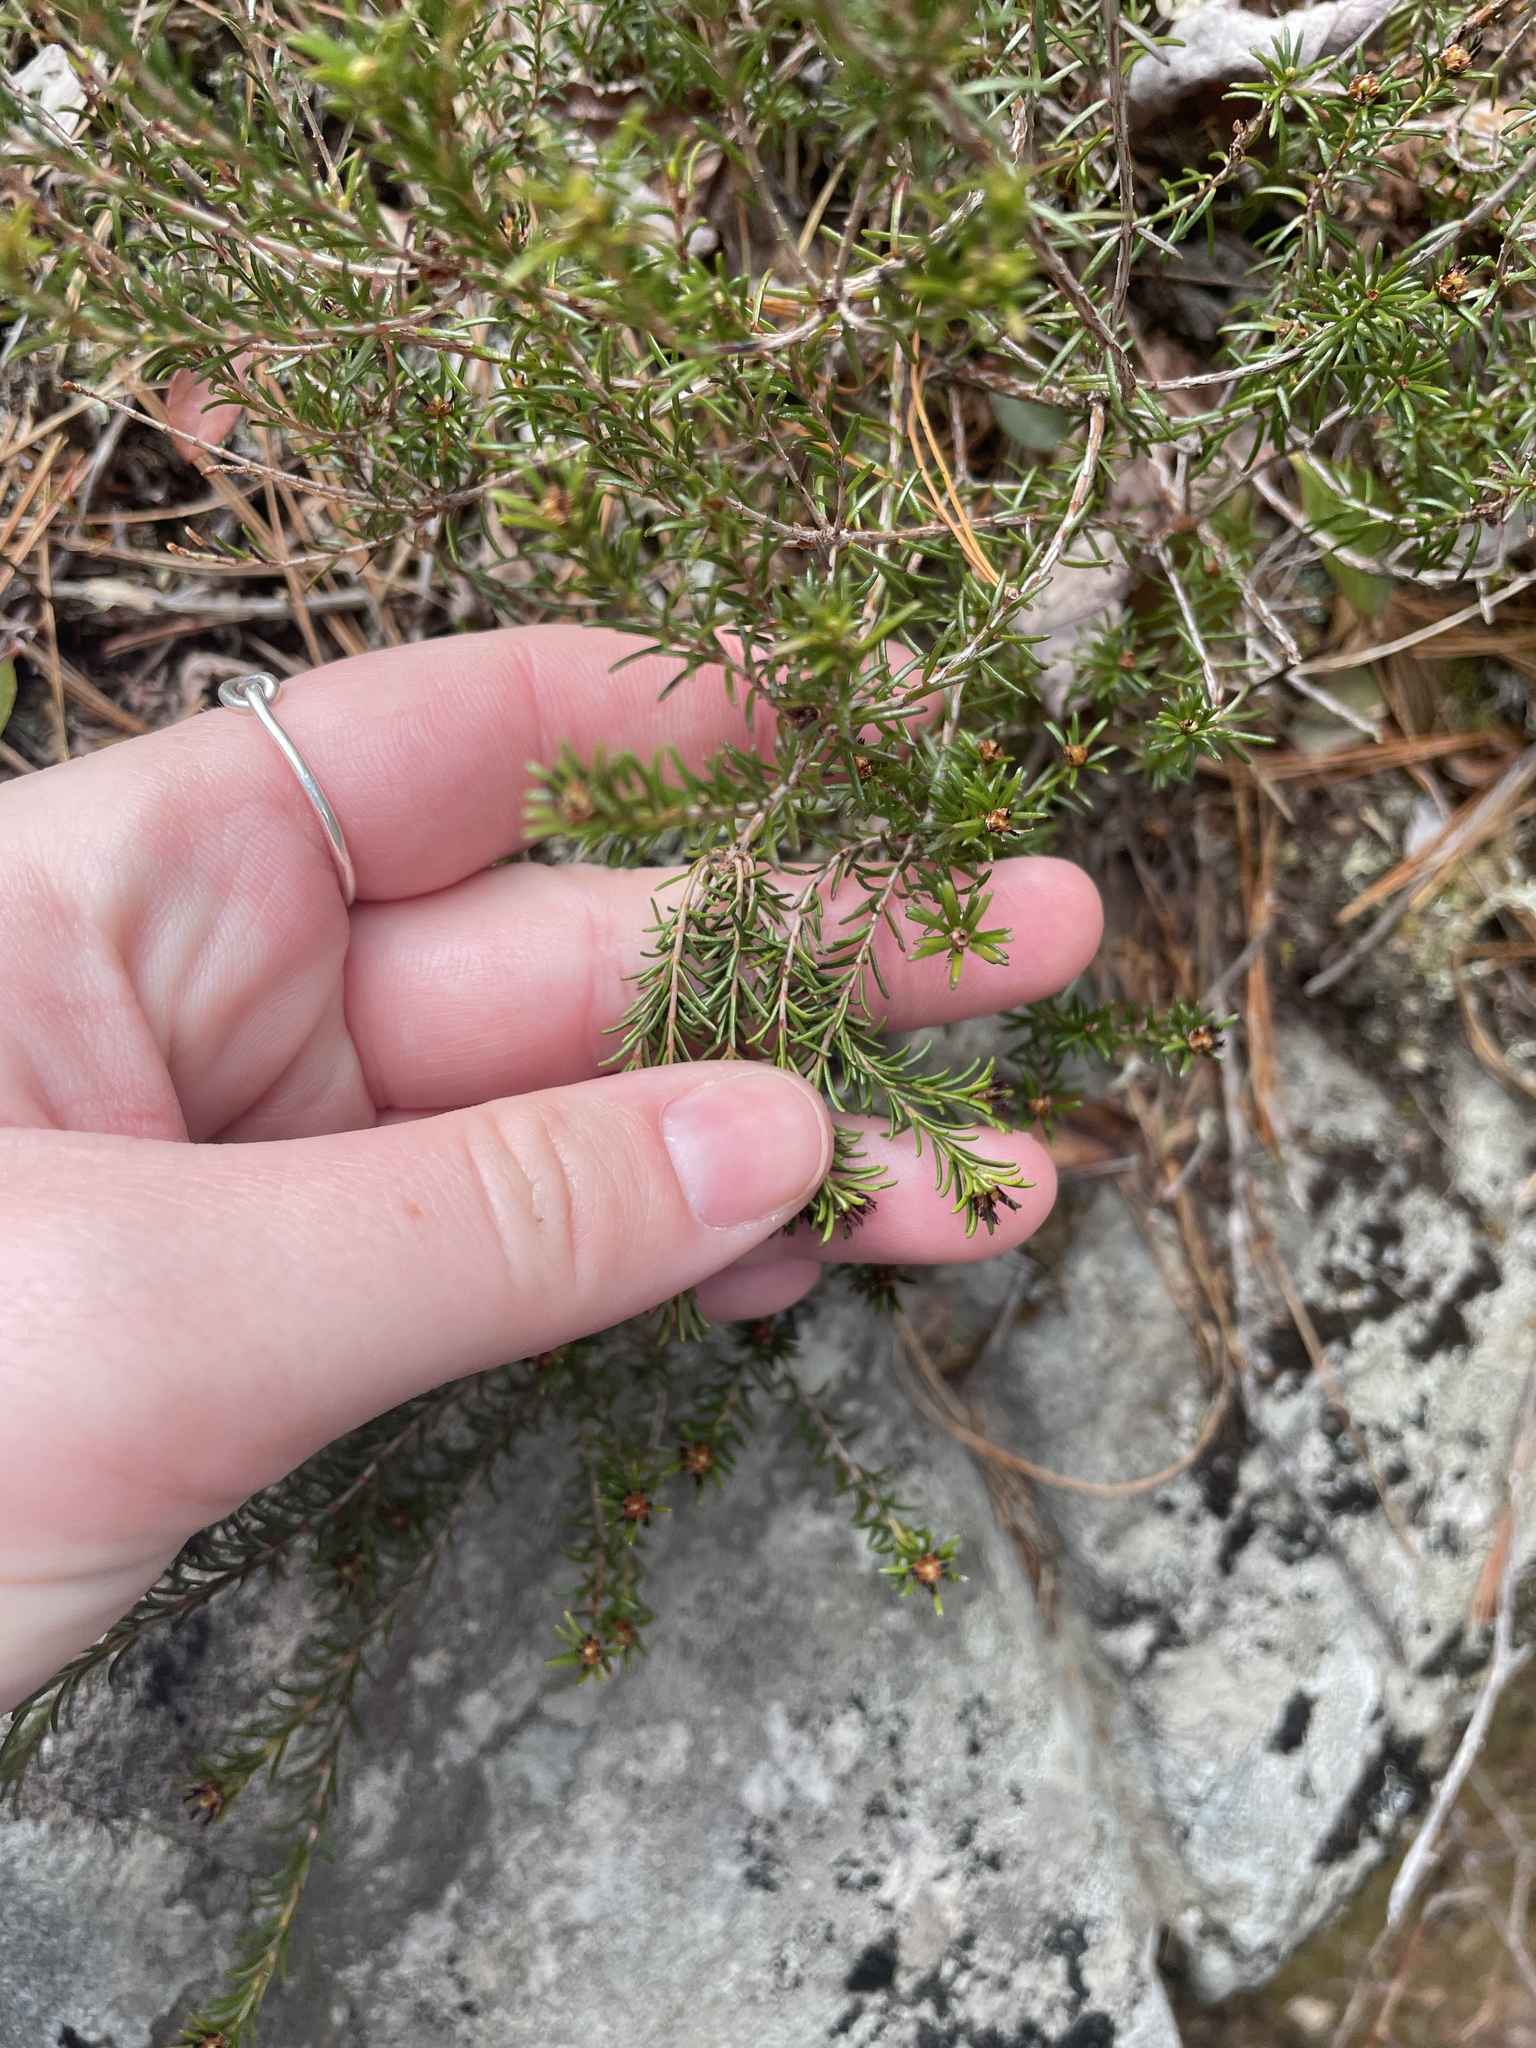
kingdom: Plantae
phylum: Tracheophyta
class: Magnoliopsida
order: Ericales
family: Ericaceae
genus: Corema
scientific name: Corema conradii
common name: Broom-crowberry
